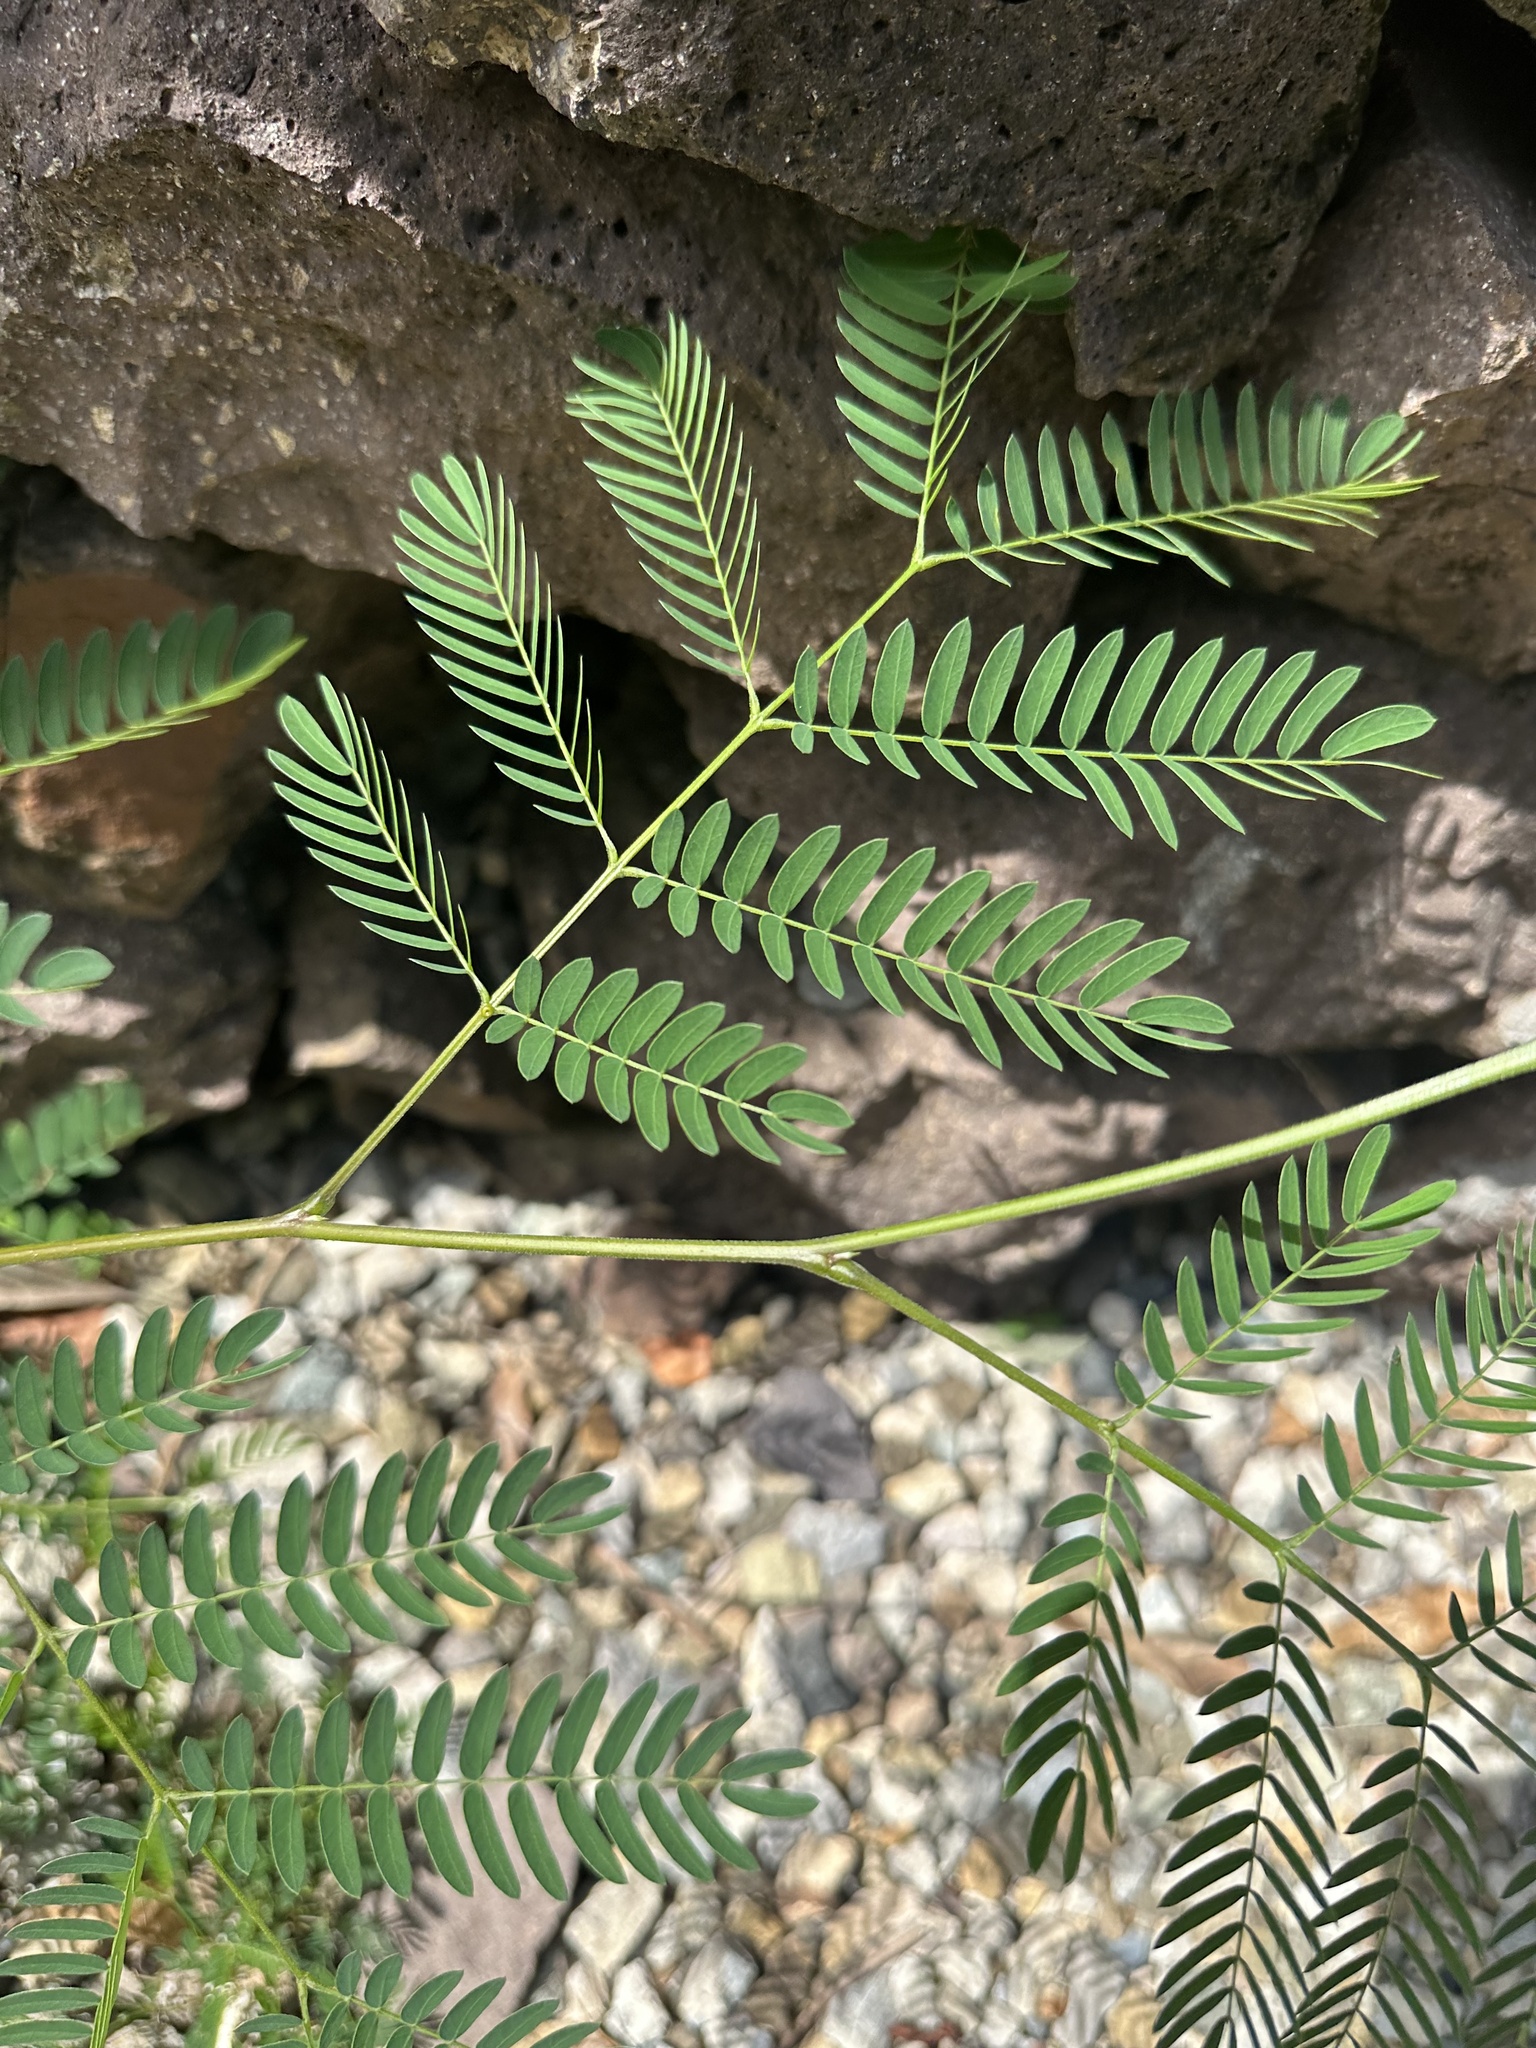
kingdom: Plantae
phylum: Tracheophyta
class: Magnoliopsida
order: Fabales
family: Fabaceae
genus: Leucaena
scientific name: Leucaena leucocephala
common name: White leadtree
